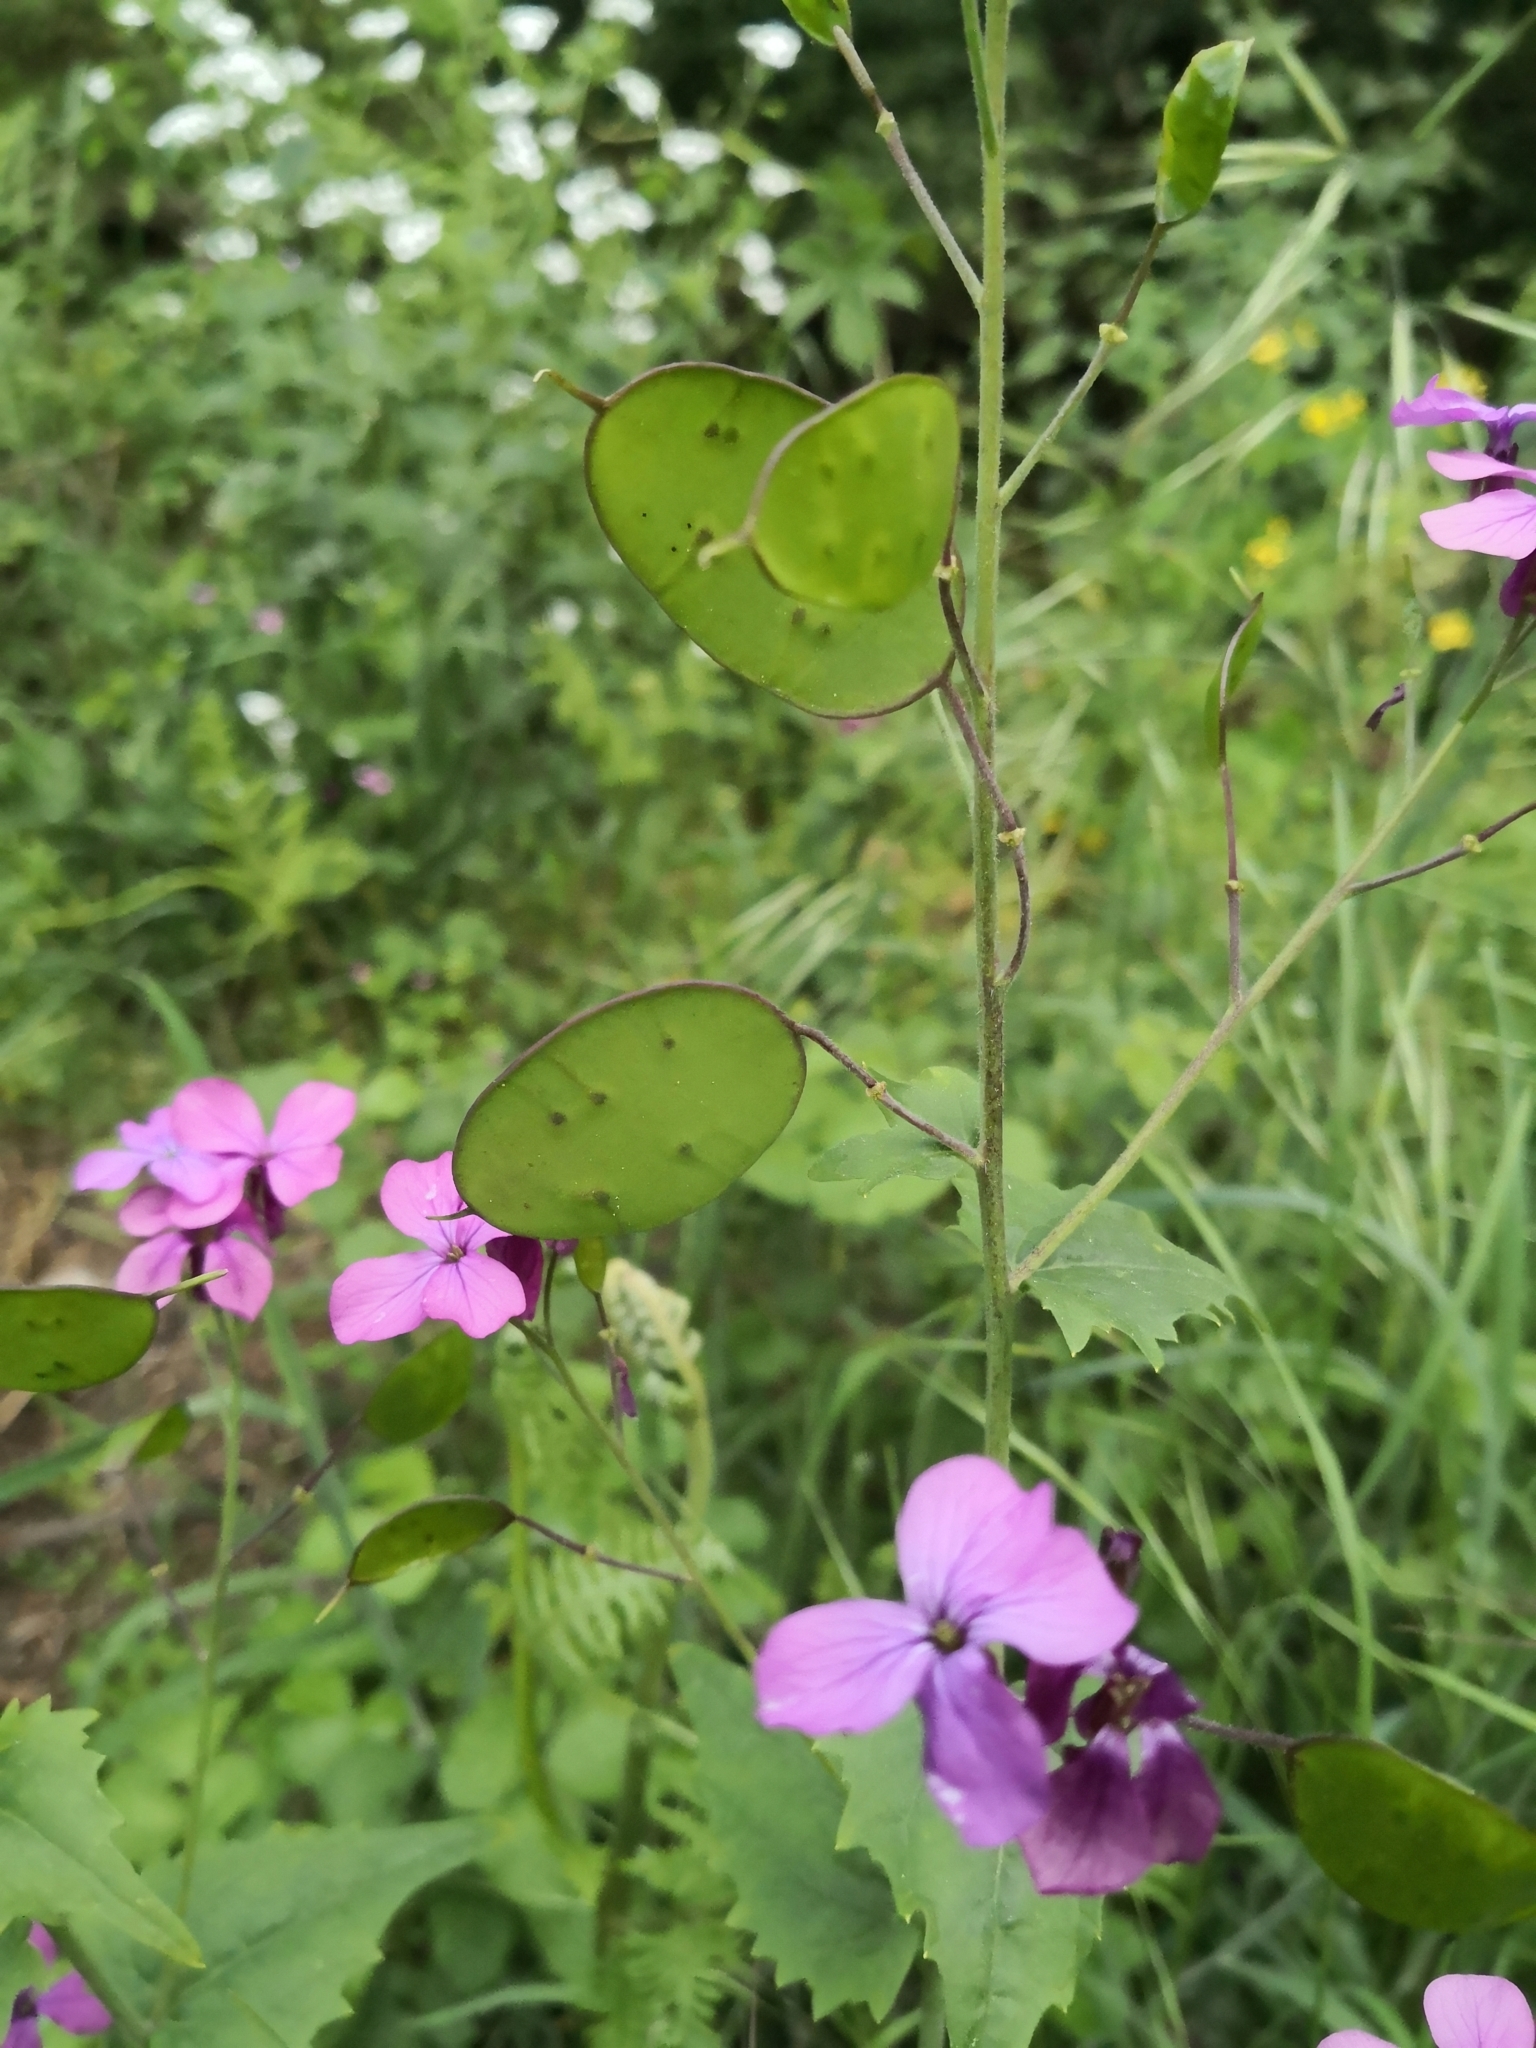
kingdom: Plantae
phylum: Tracheophyta
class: Magnoliopsida
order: Brassicales
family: Brassicaceae
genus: Lunaria
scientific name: Lunaria annua
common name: Honesty
